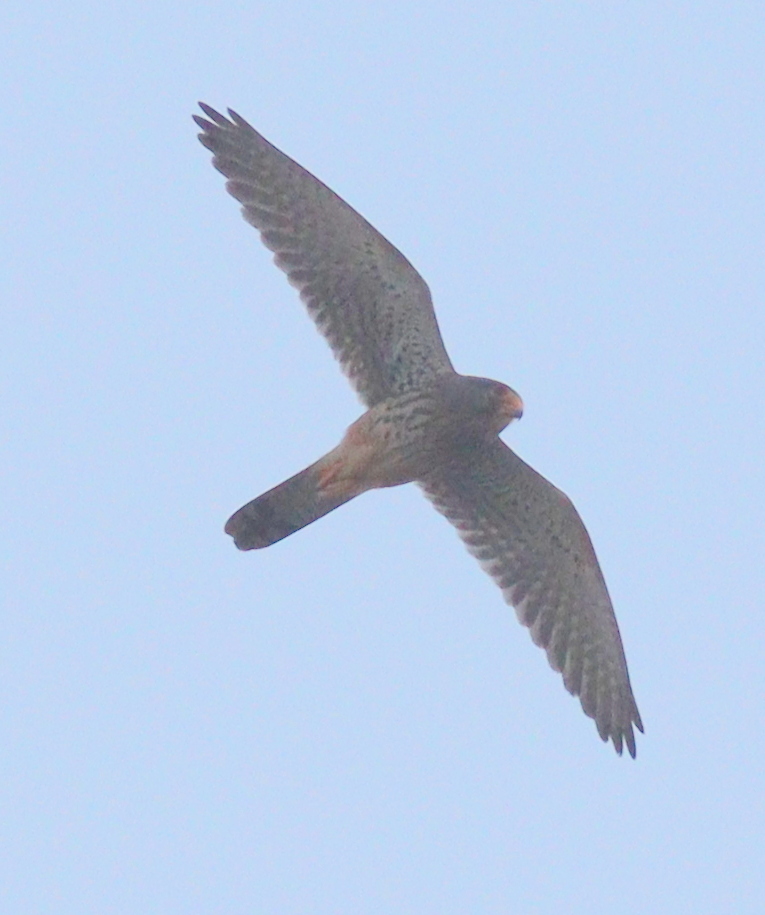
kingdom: Animalia
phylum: Chordata
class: Aves
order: Falconiformes
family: Falconidae
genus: Falco
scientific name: Falco tinnunculus
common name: Common kestrel
